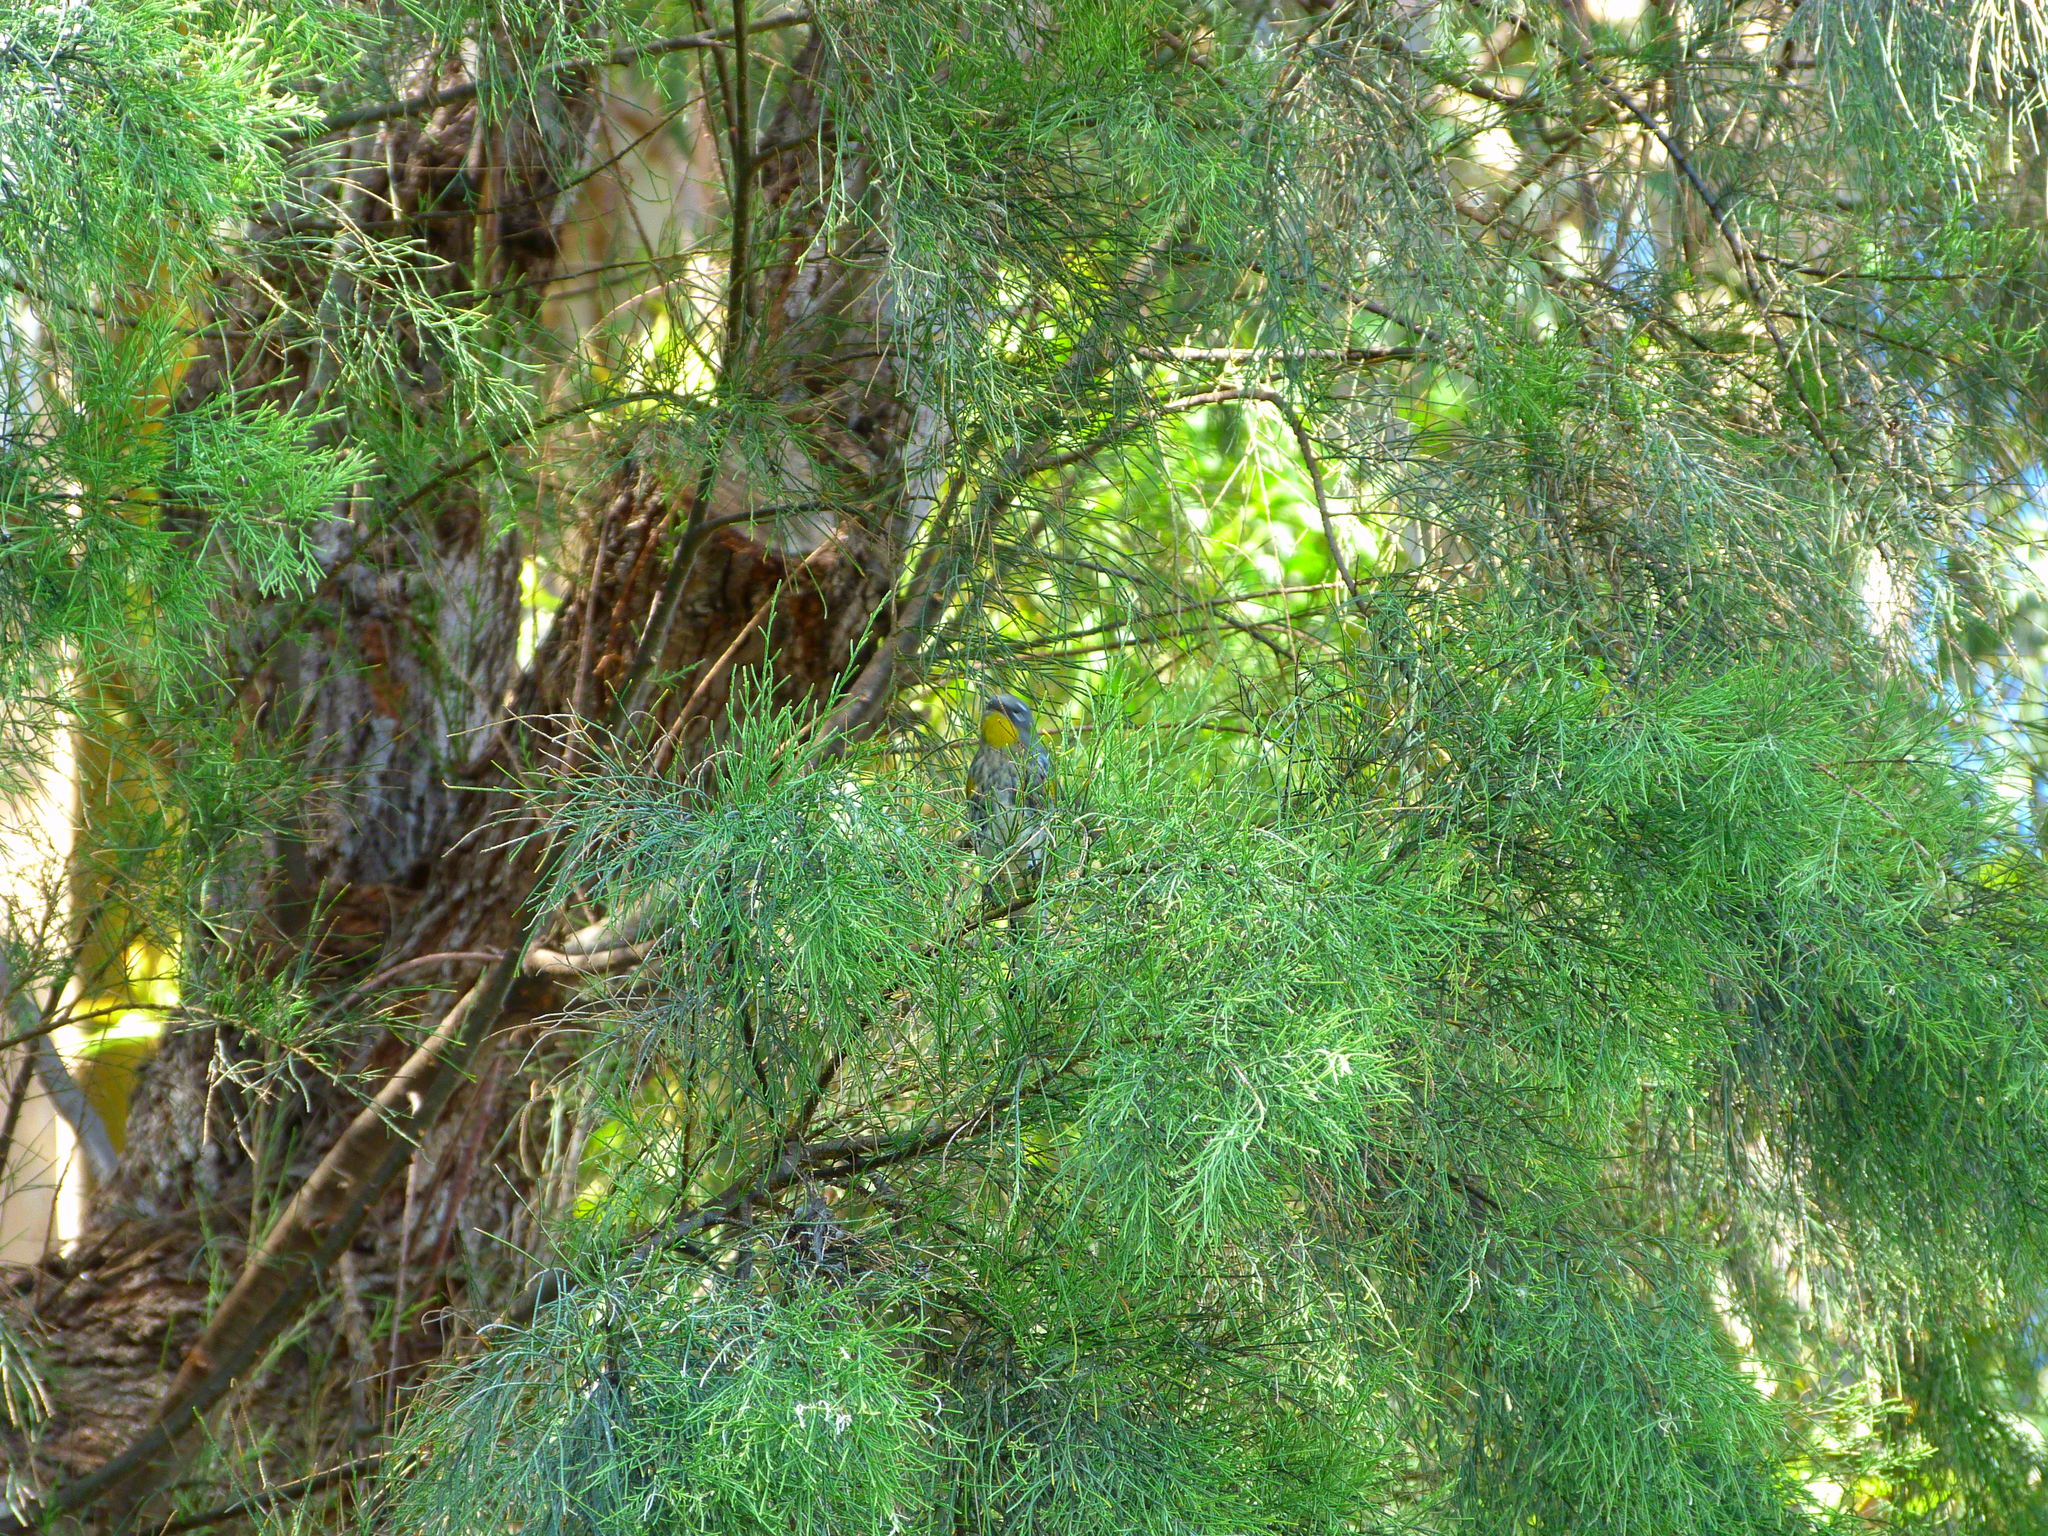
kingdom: Animalia
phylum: Chordata
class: Aves
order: Passeriformes
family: Parulidae
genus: Setophaga
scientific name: Setophaga coronata
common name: Myrtle warbler
